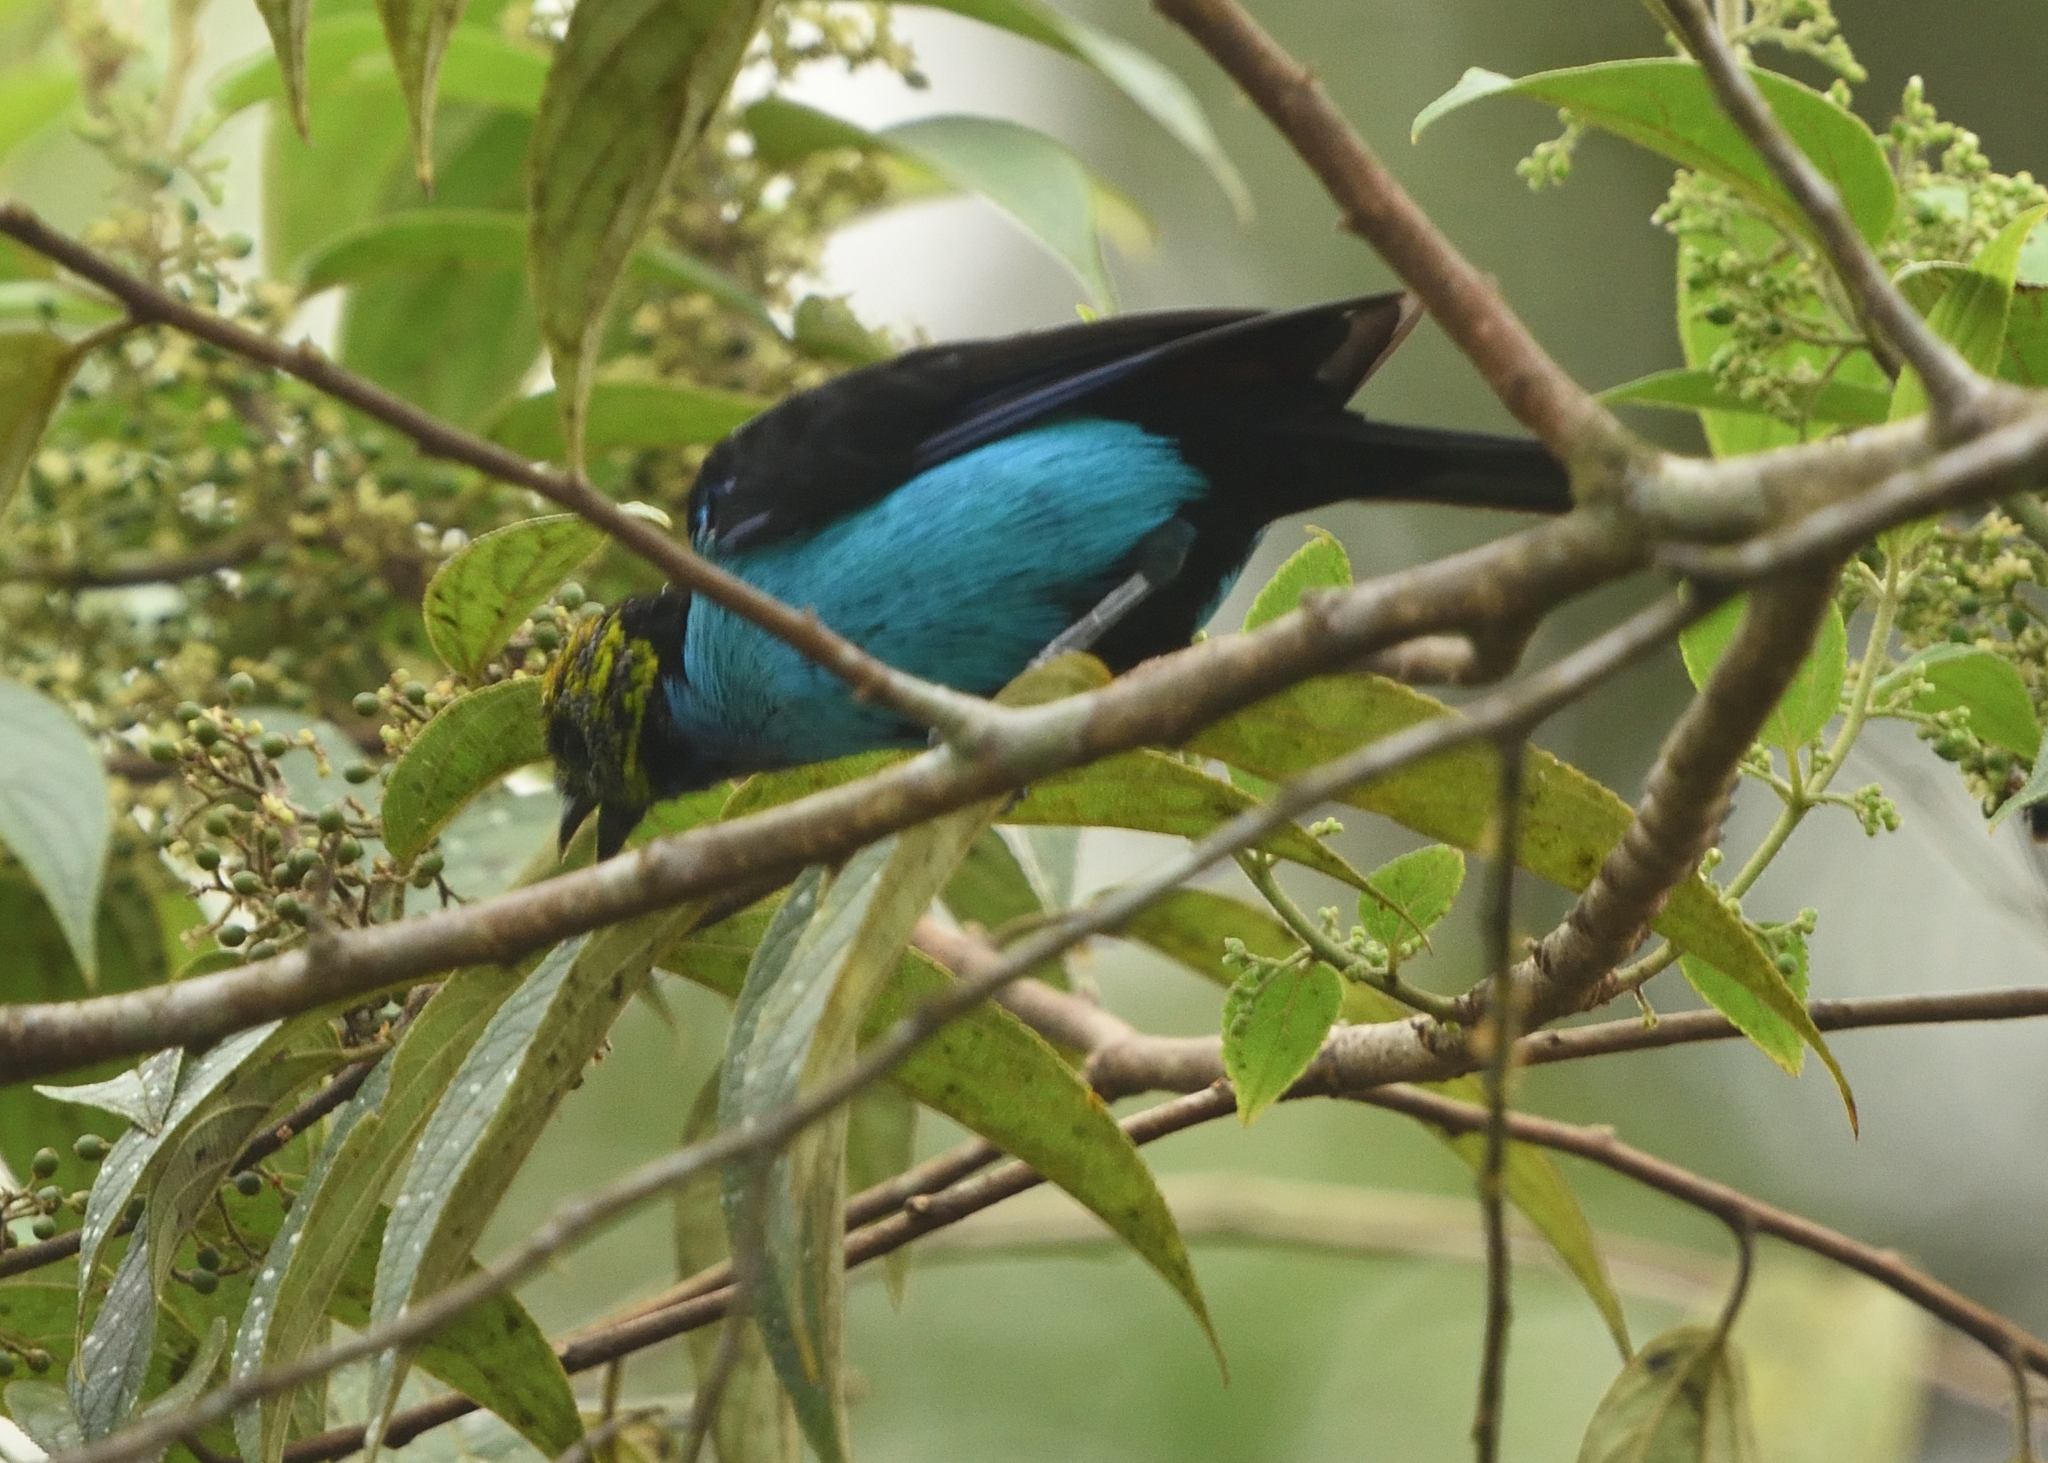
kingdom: Animalia
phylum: Chordata
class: Aves
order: Passeriformes
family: Thraupidae
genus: Tangara
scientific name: Tangara chilensis
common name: Paradise tanager
